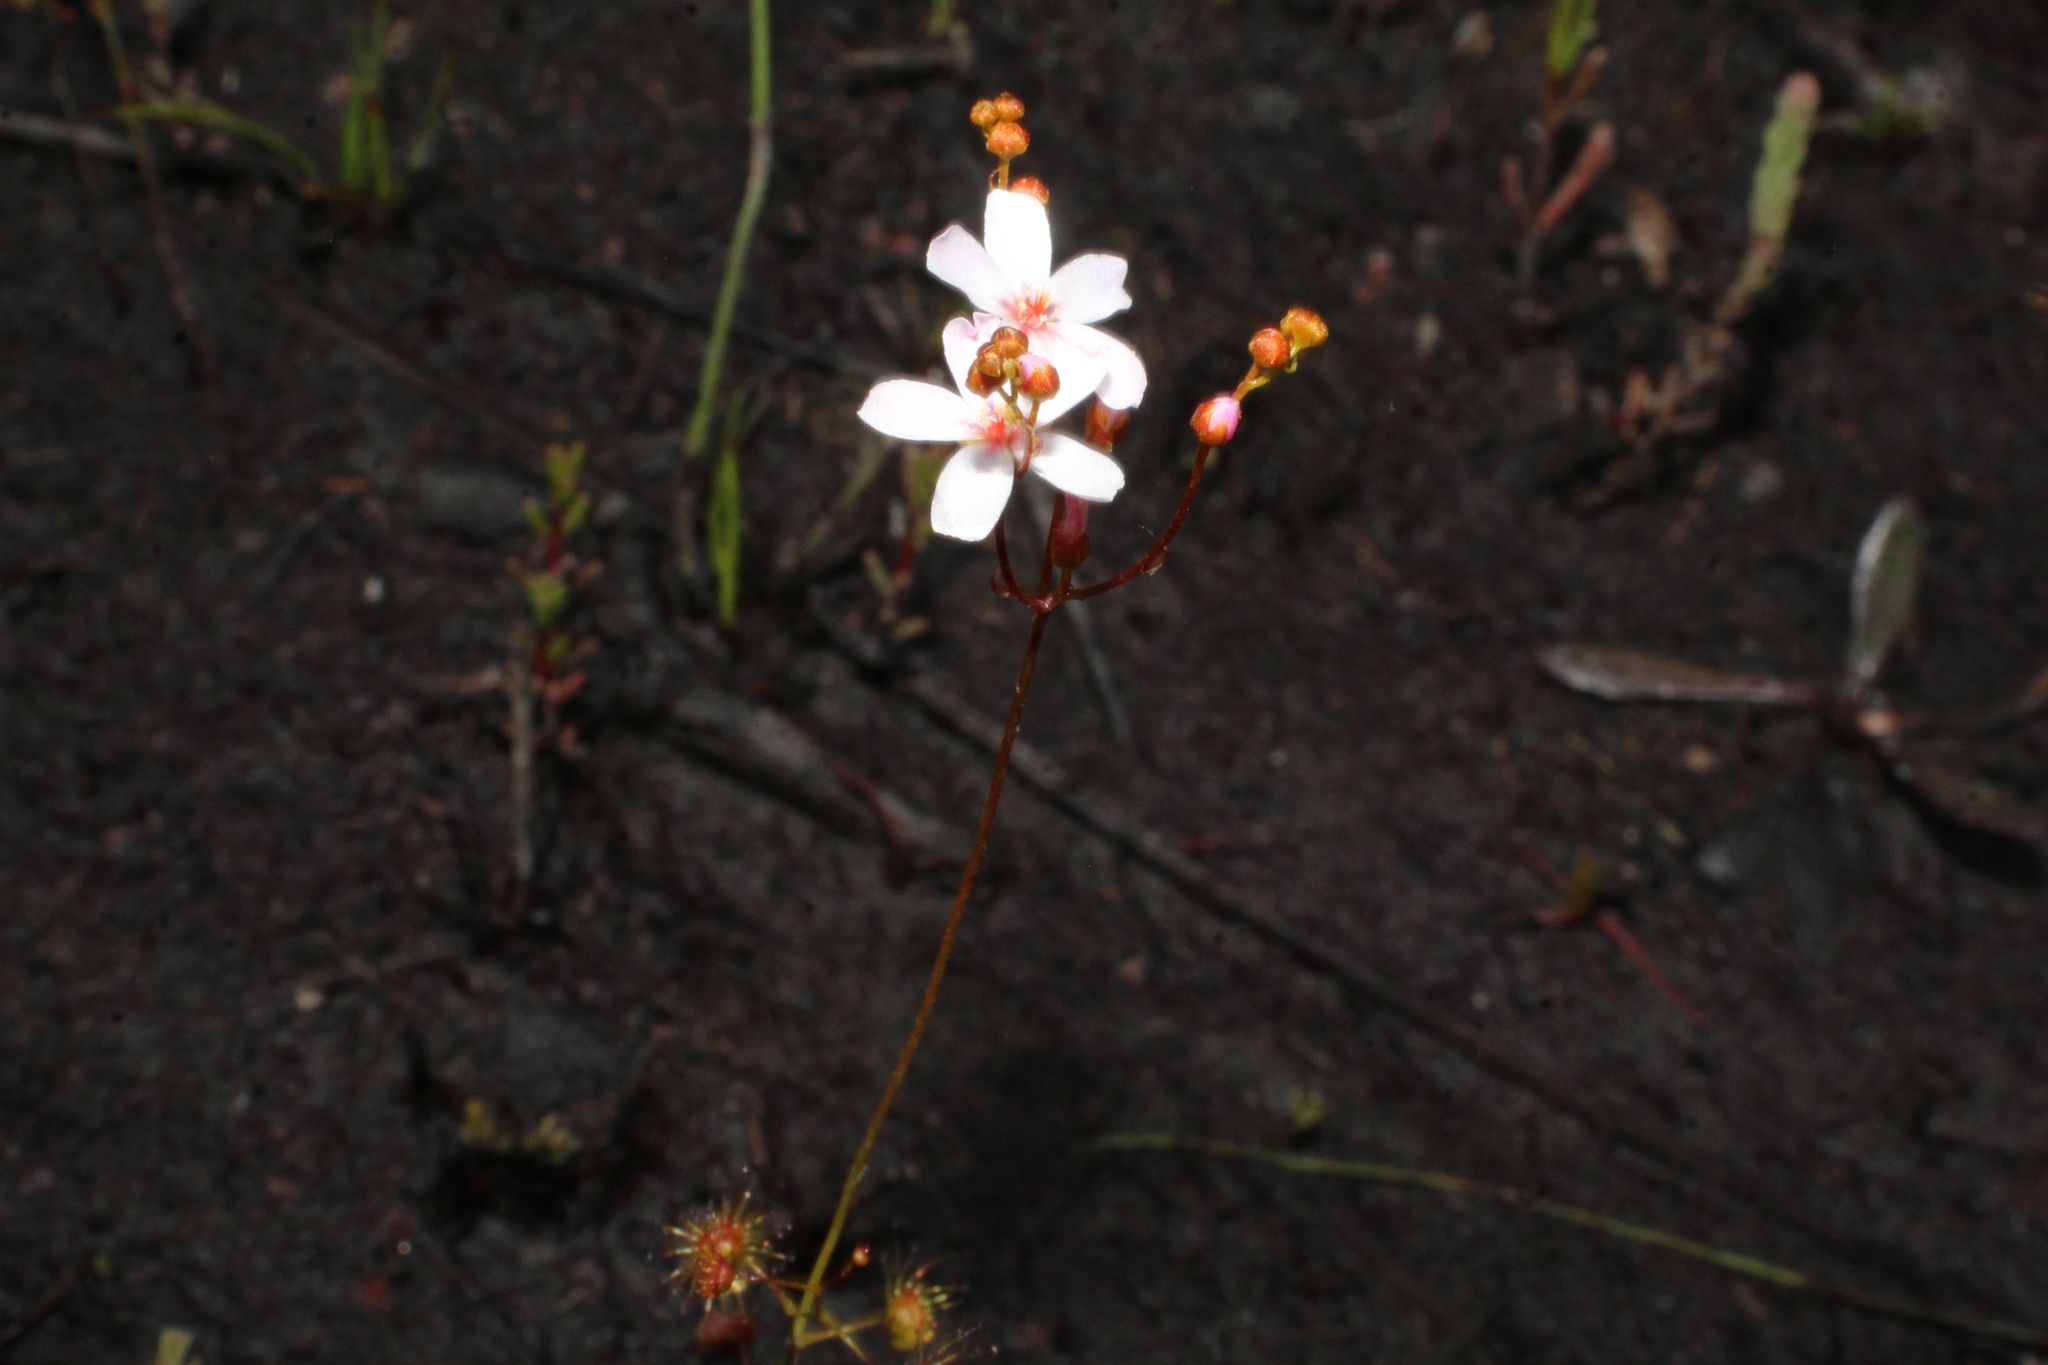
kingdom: Plantae
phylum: Tracheophyta
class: Magnoliopsida
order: Caryophyllales
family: Droseraceae
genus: Drosera
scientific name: Drosera myriantha
